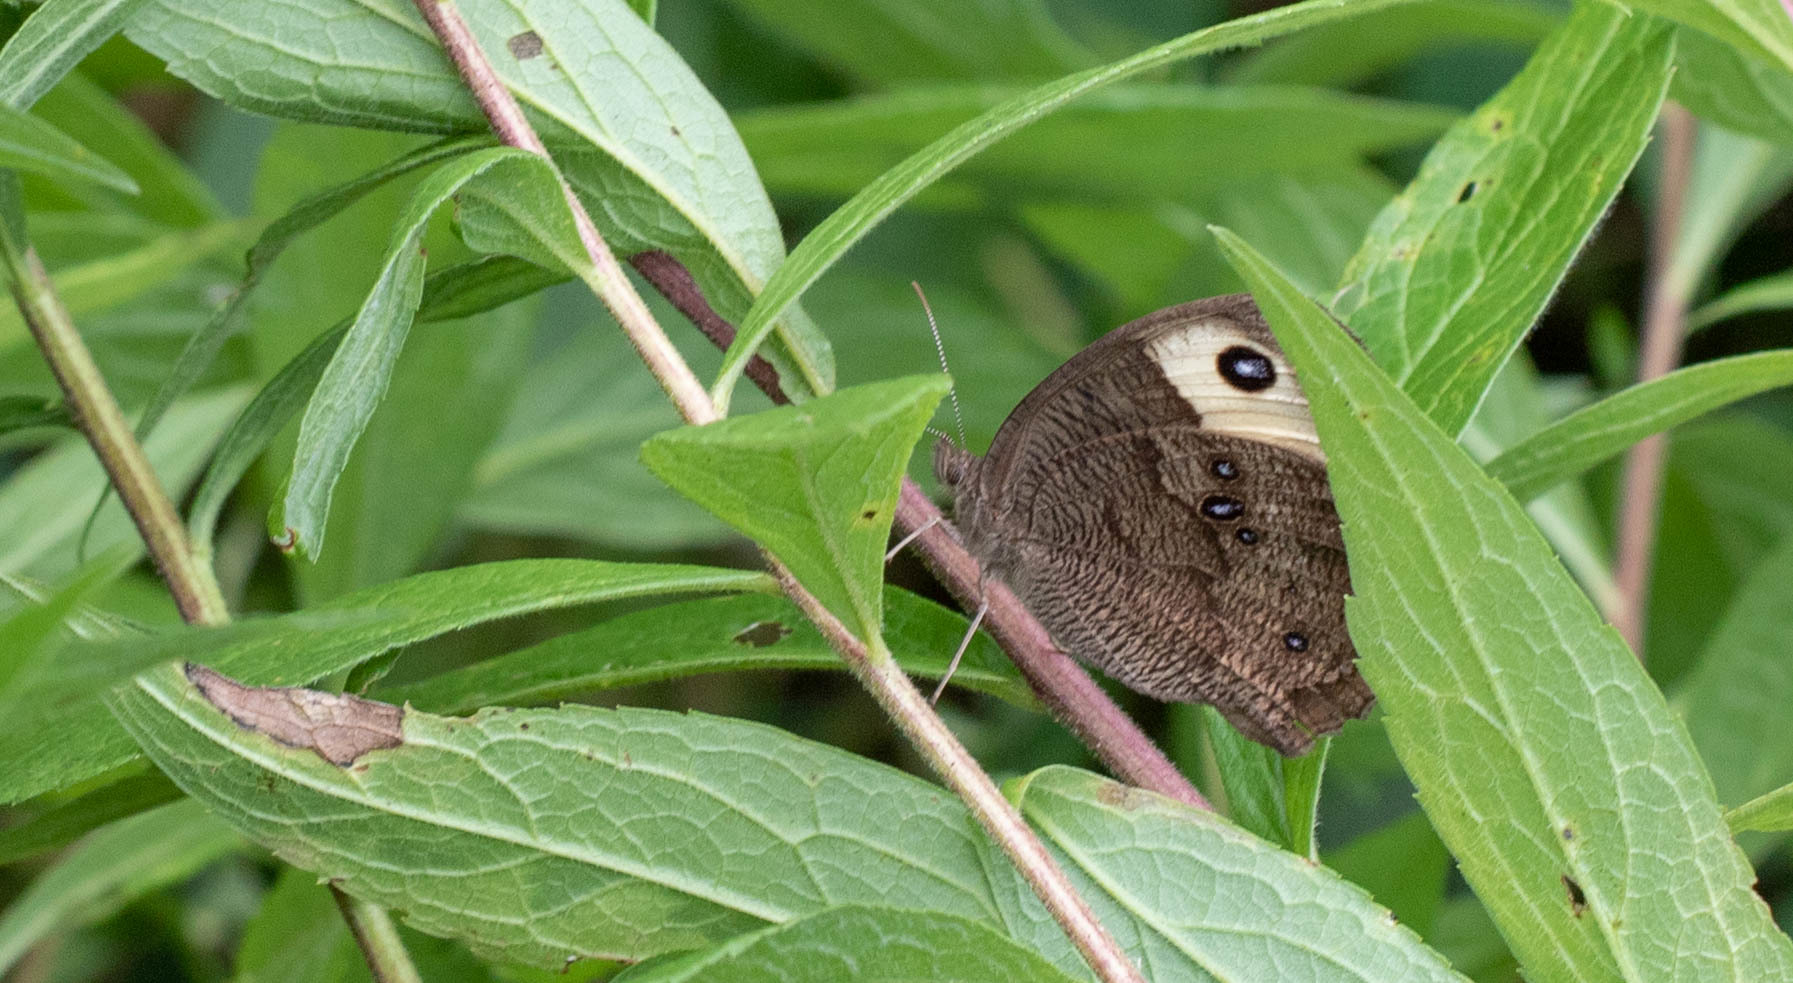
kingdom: Animalia
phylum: Arthropoda
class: Insecta
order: Lepidoptera
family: Nymphalidae
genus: Cercyonis
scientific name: Cercyonis pegala
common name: Common wood-nymph
